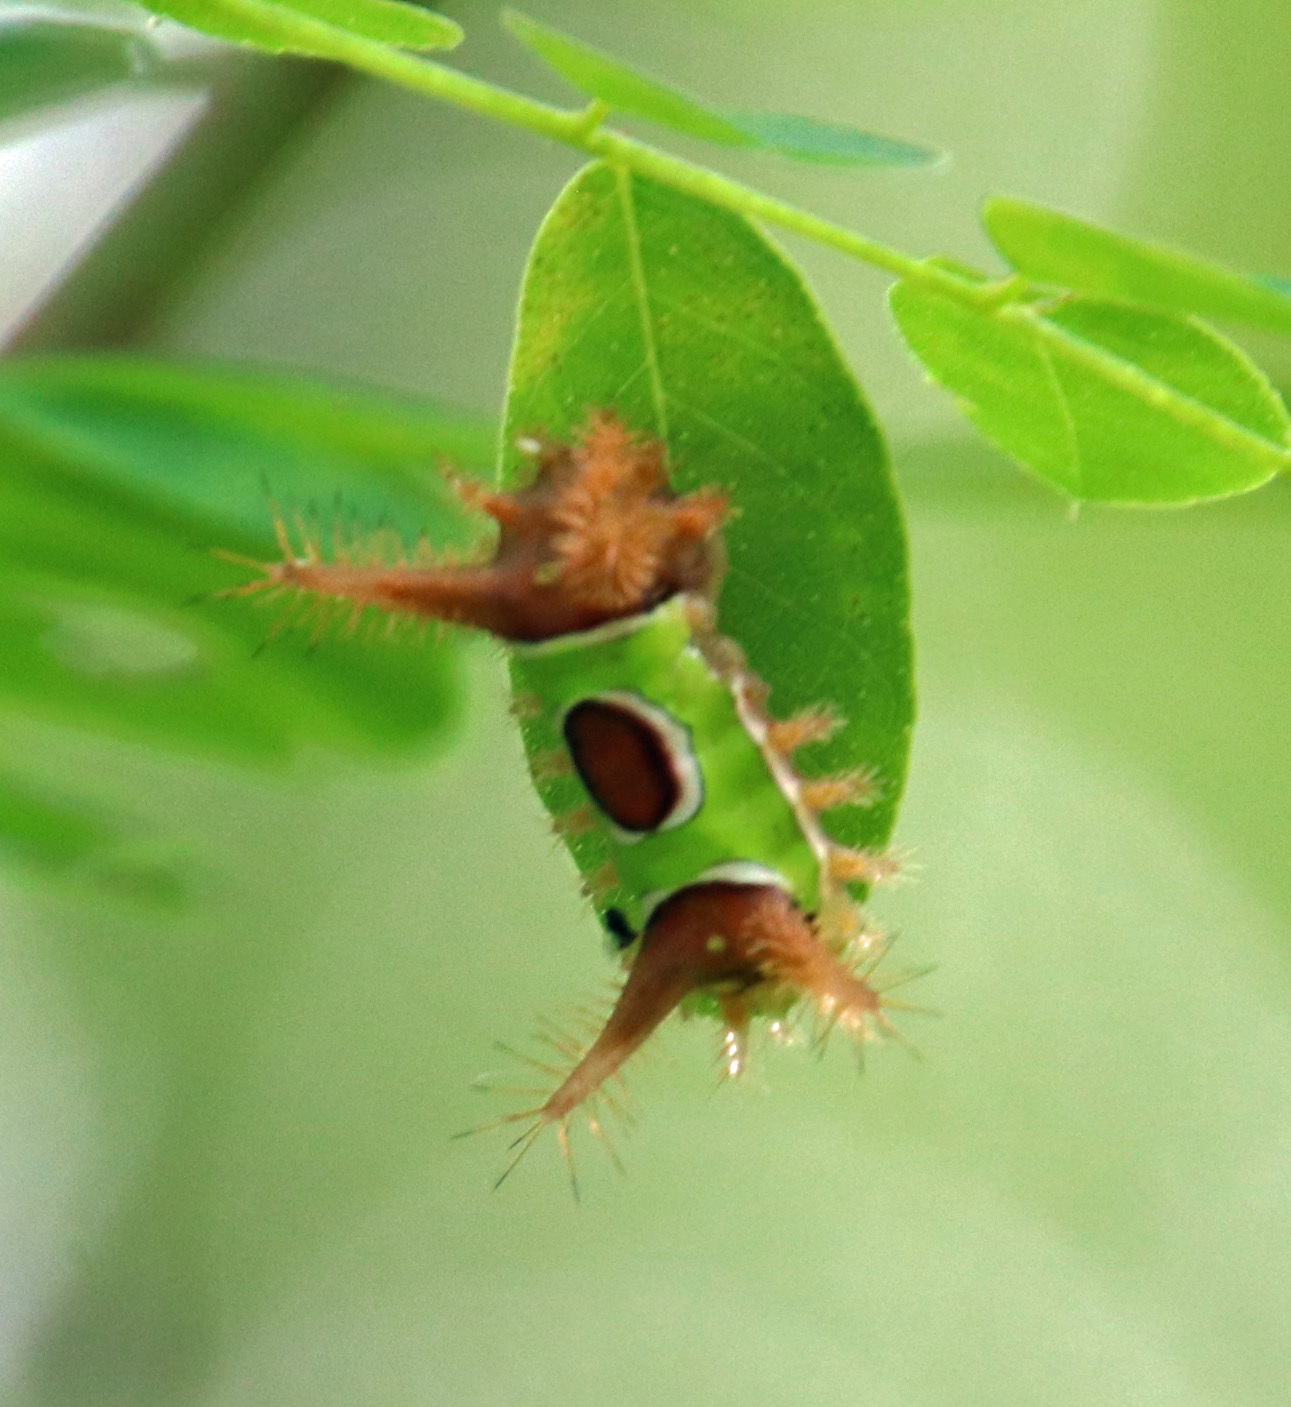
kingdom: Animalia
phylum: Arthropoda
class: Insecta
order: Lepidoptera
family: Limacodidae
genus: Acharia
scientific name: Acharia stimulea
